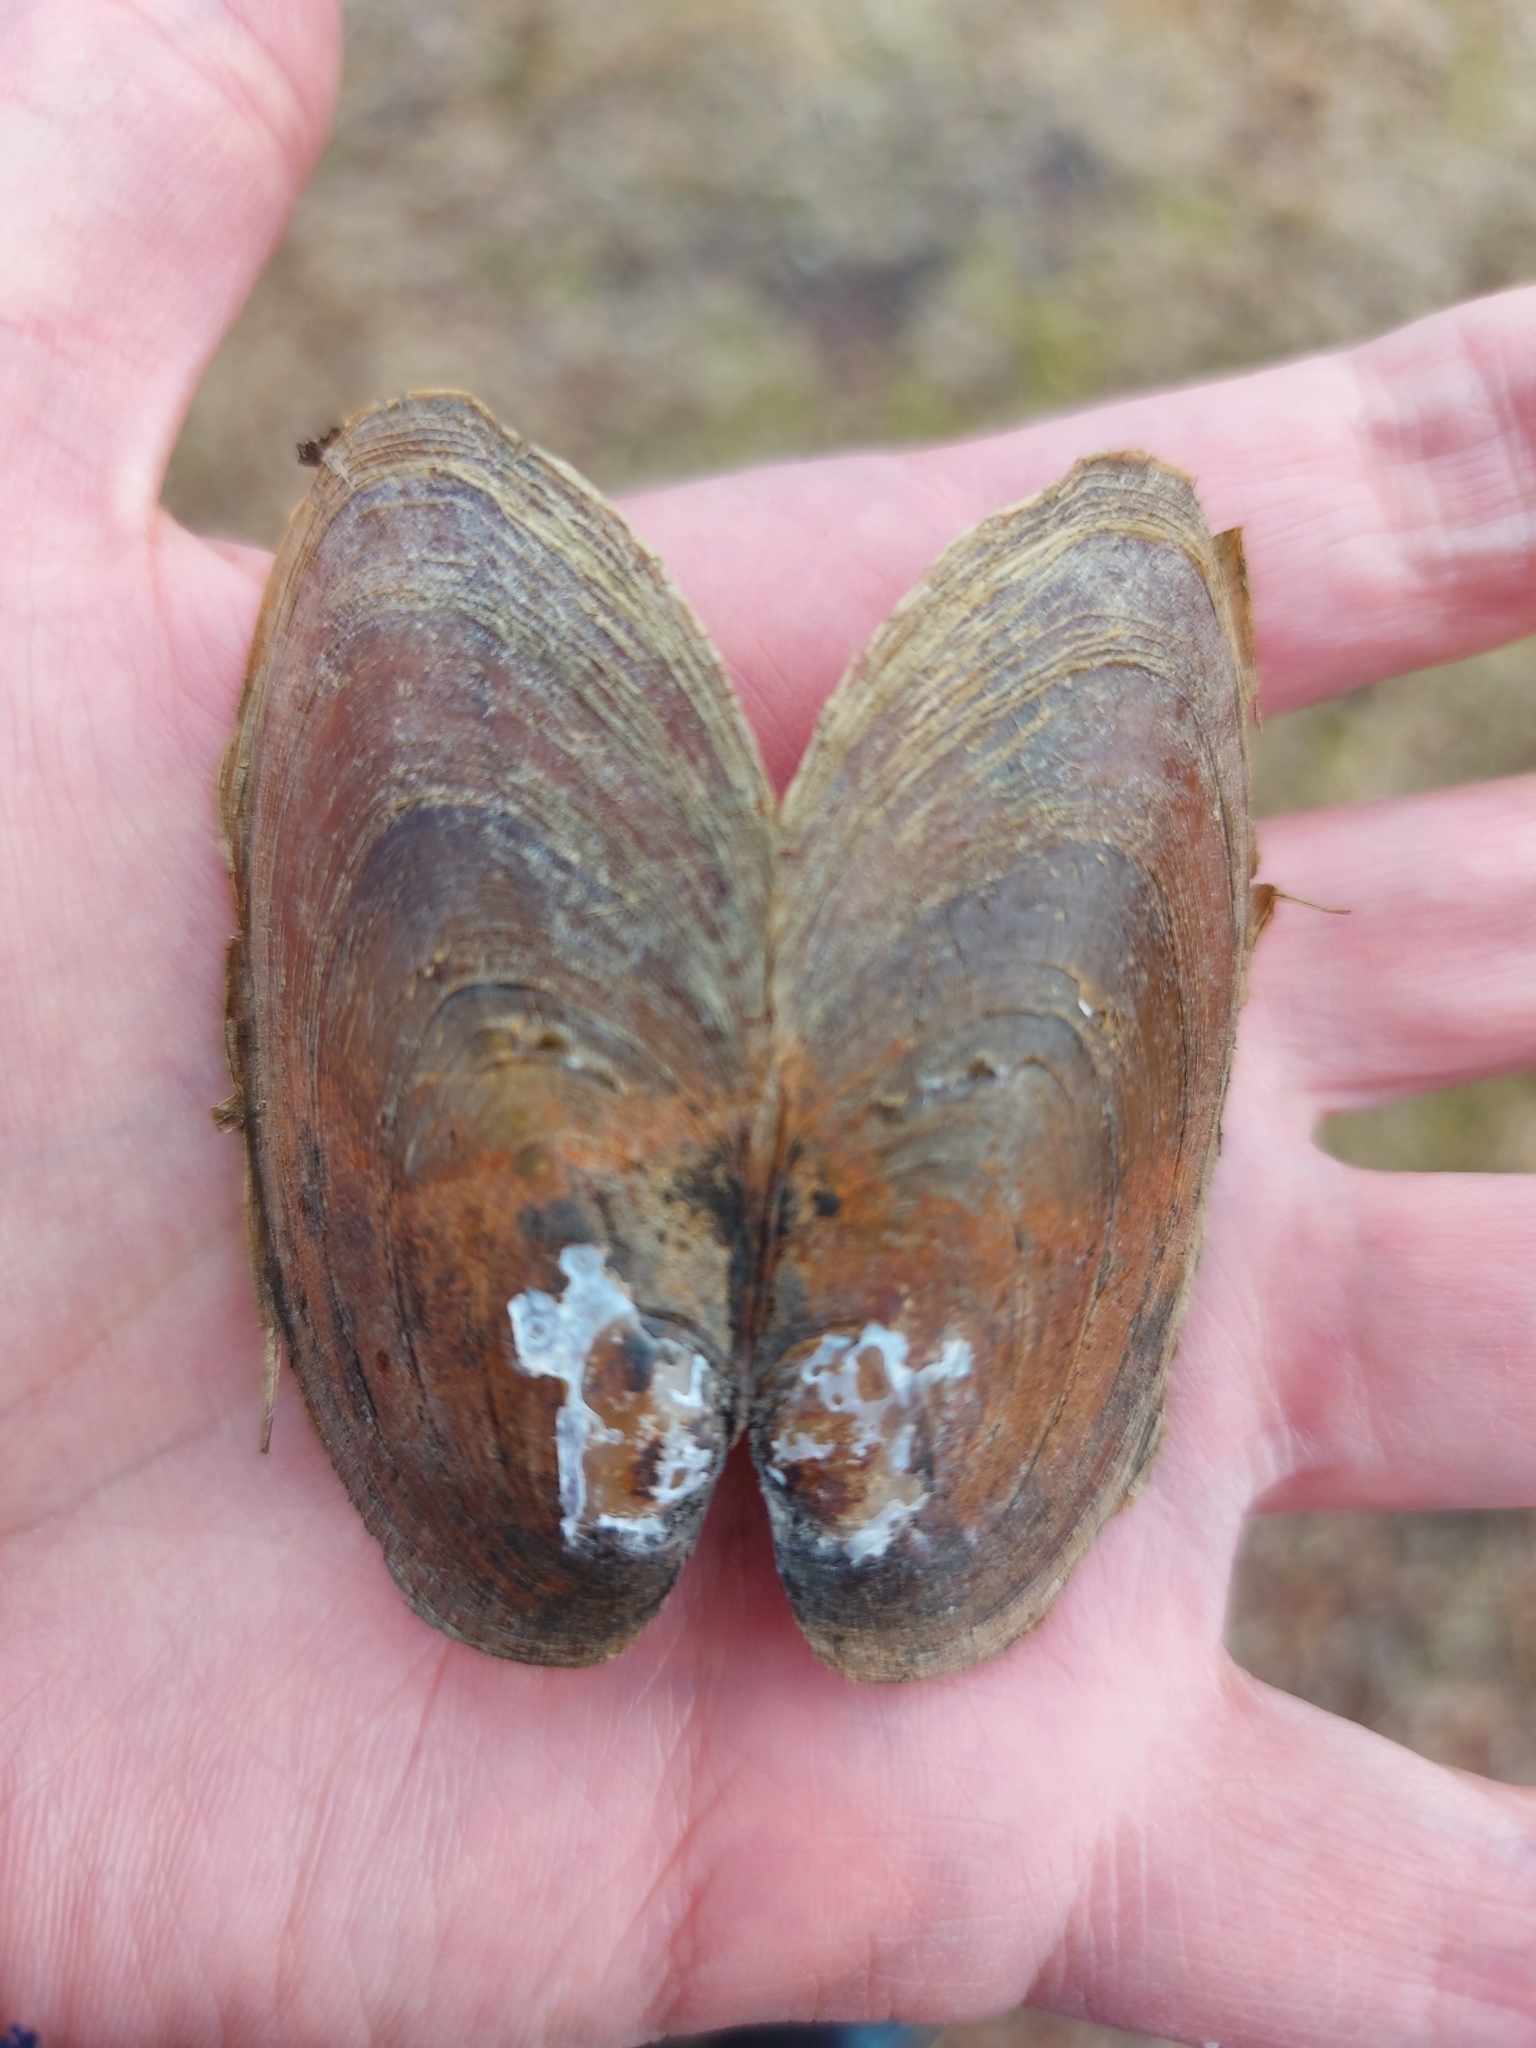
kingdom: Animalia
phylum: Mollusca
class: Bivalvia
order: Unionida
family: Unionidae
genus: Elliptio
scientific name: Elliptio complanata
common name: Eastern elliptio
